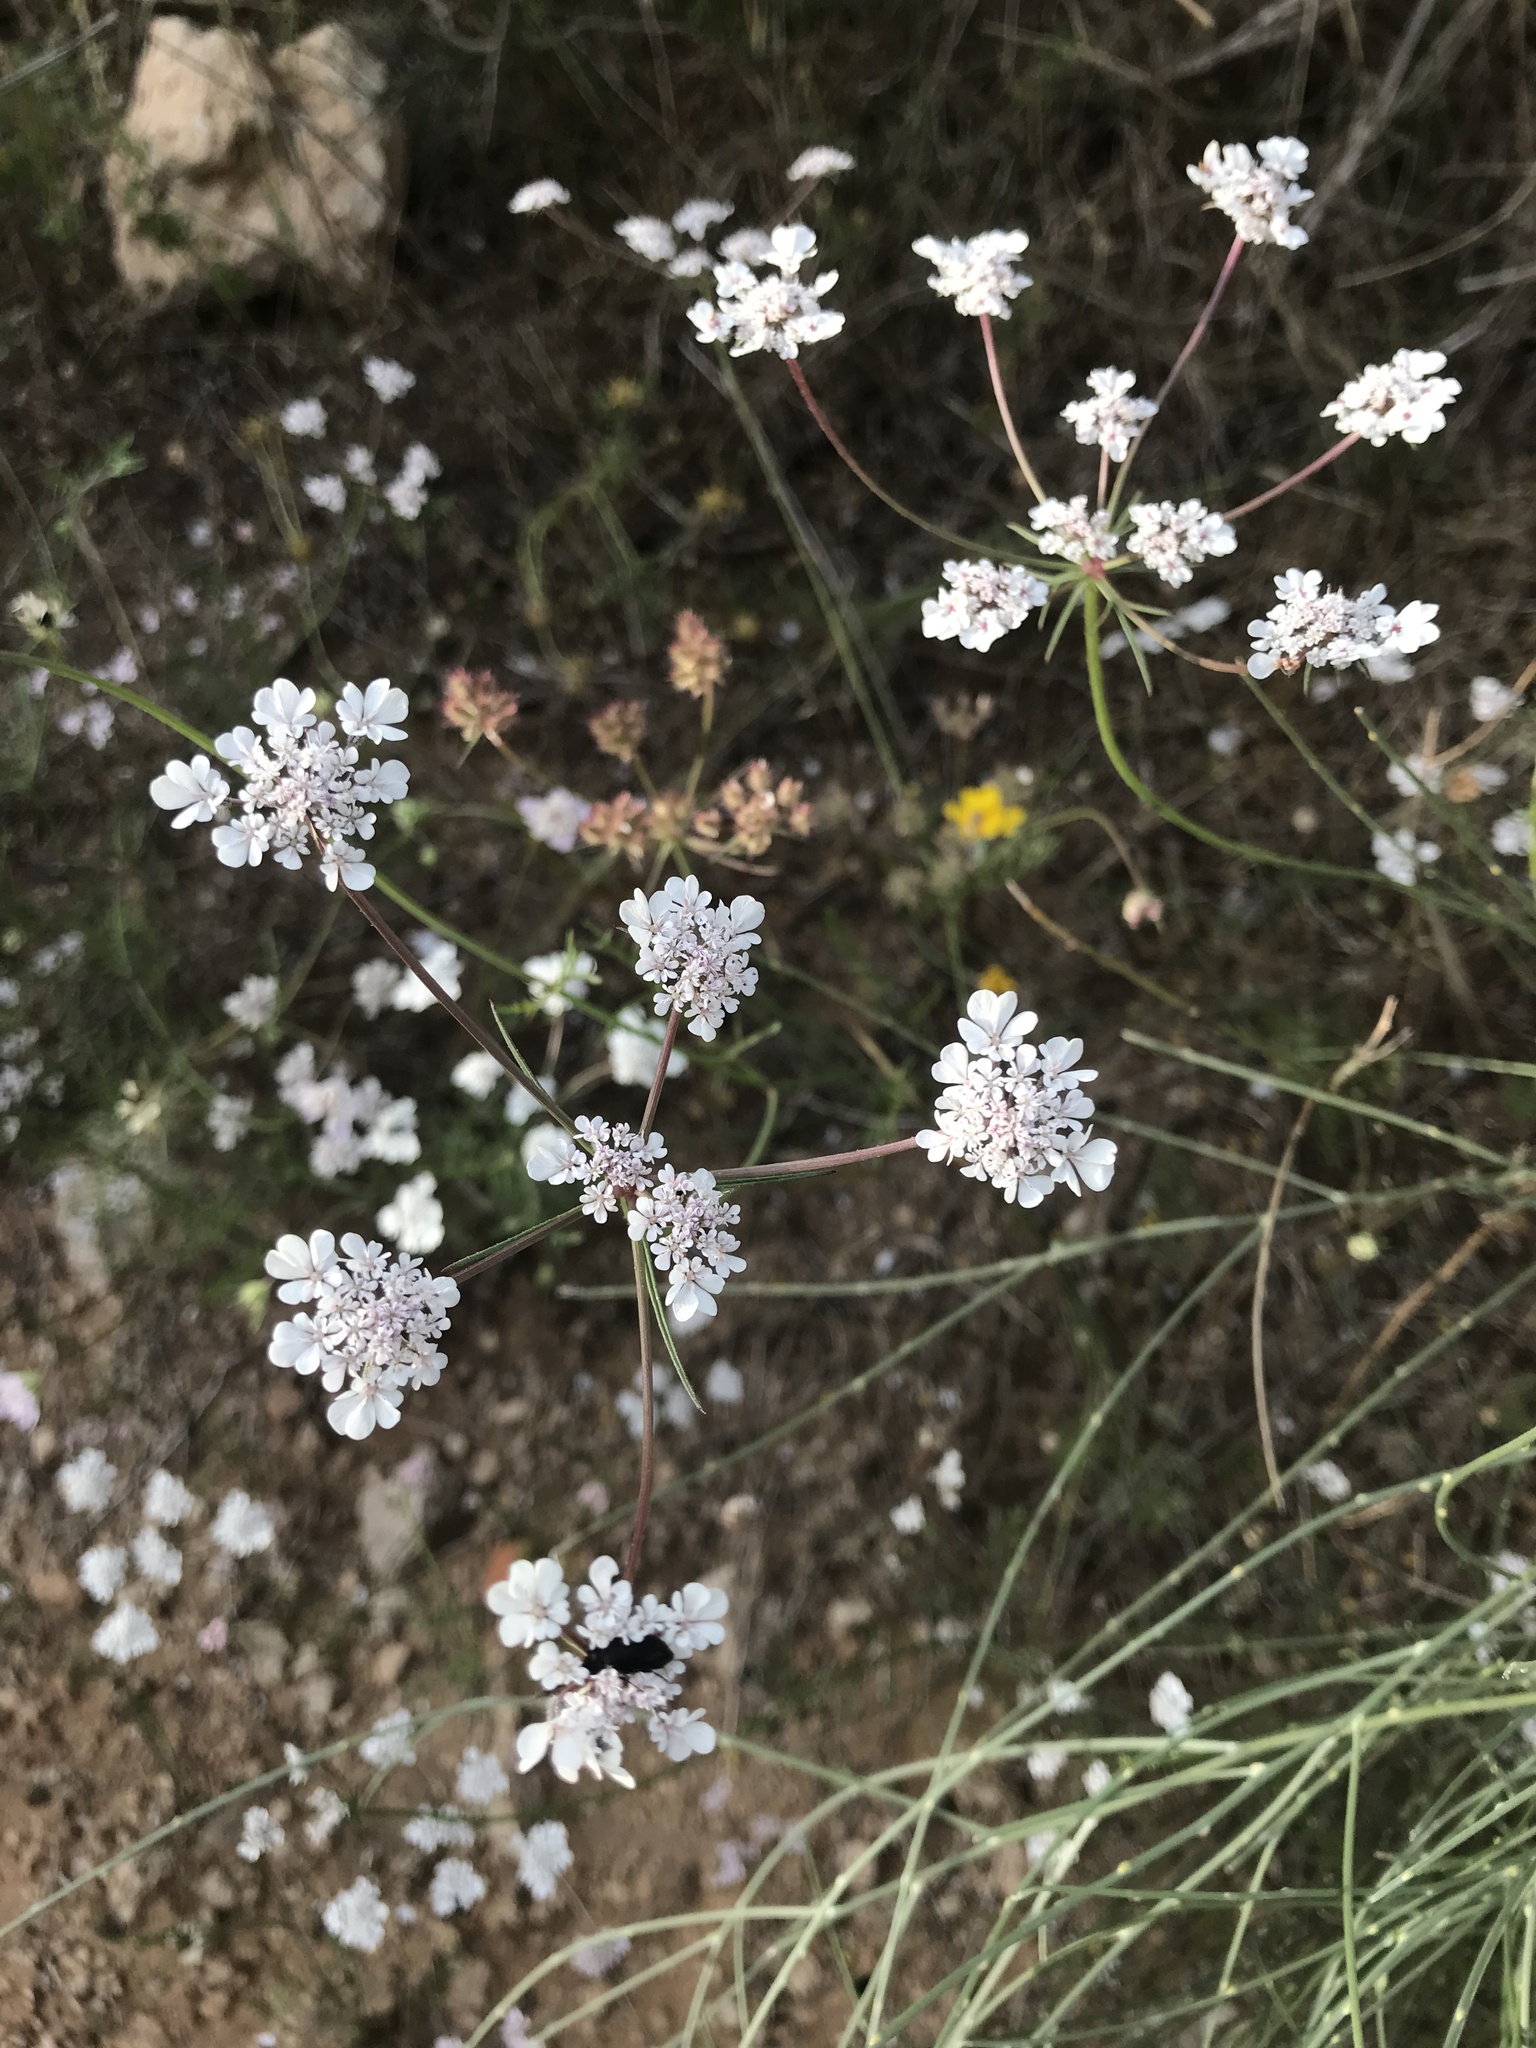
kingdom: Plantae
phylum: Tracheophyta
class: Magnoliopsida
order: Apiales
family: Apiaceae
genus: Daucus
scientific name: Daucus carota
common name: Wild carrot
